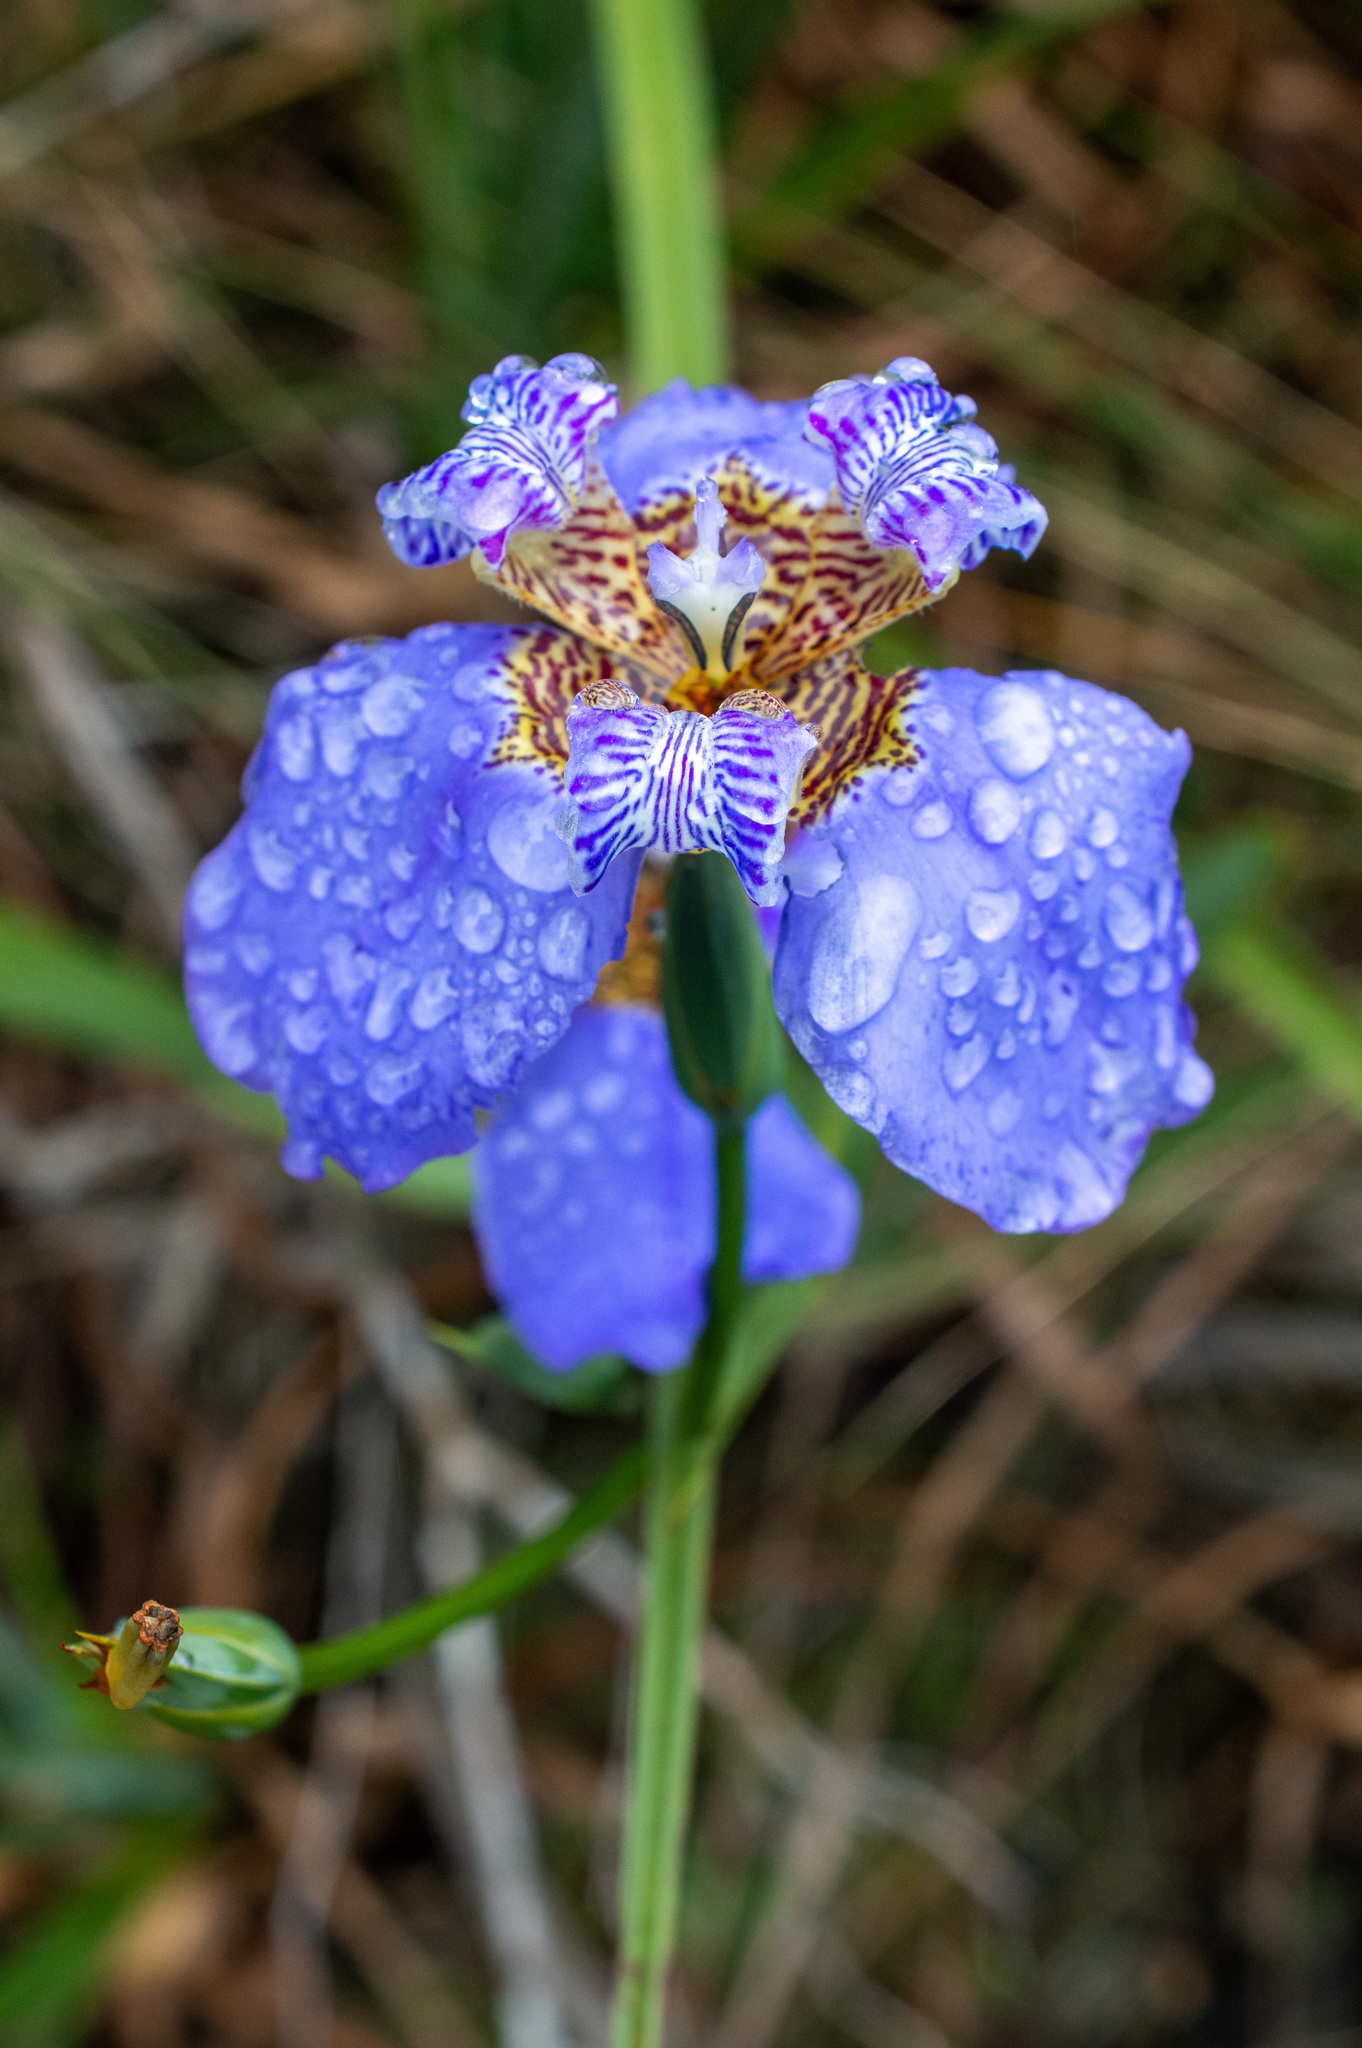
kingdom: Plantae
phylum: Tracheophyta
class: Liliopsida
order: Asparagales
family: Iridaceae
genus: Trimezia
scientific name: Trimezia coerulea
